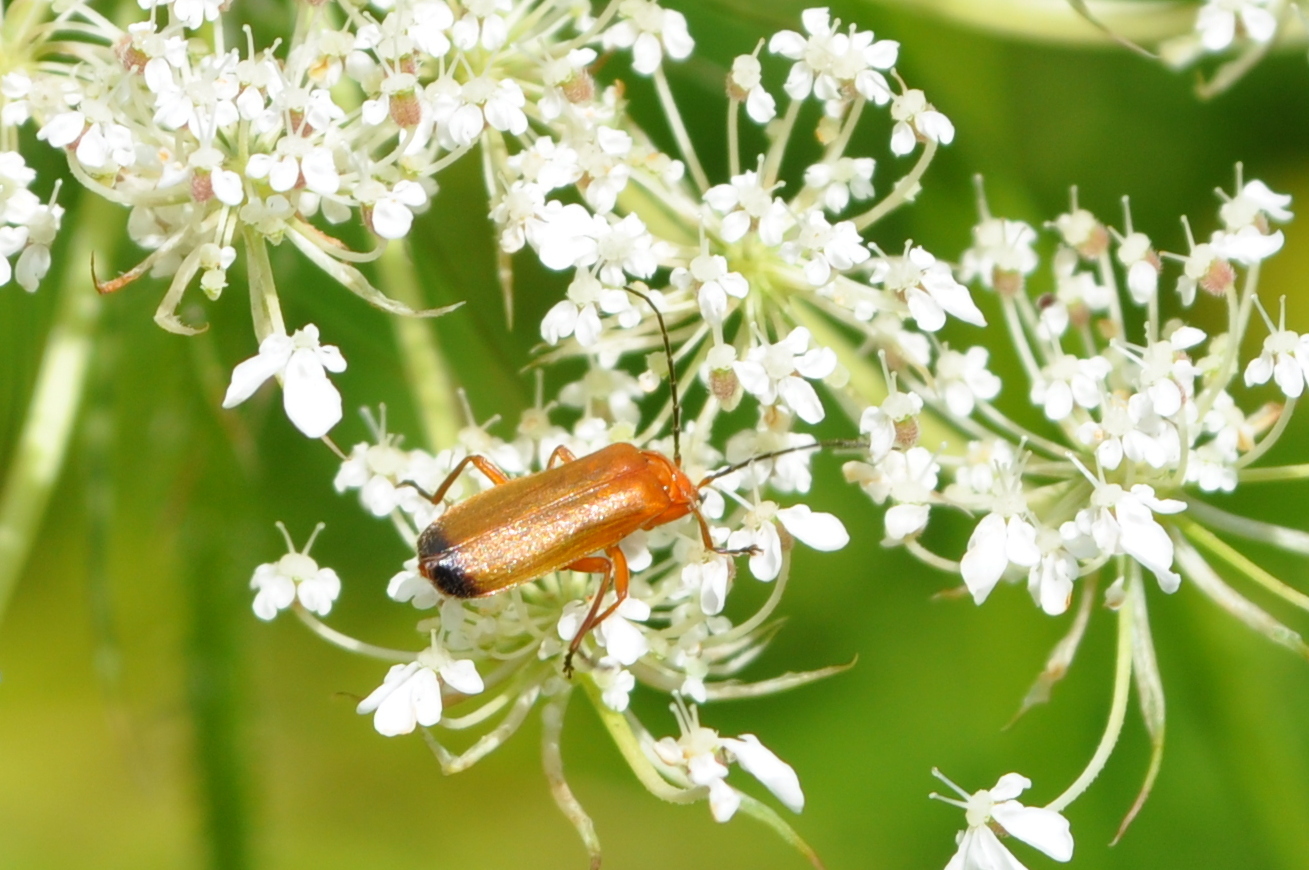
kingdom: Animalia
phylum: Arthropoda
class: Insecta
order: Coleoptera
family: Cantharidae
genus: Rhagonycha
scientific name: Rhagonycha fulva
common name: Common red soldier beetle
